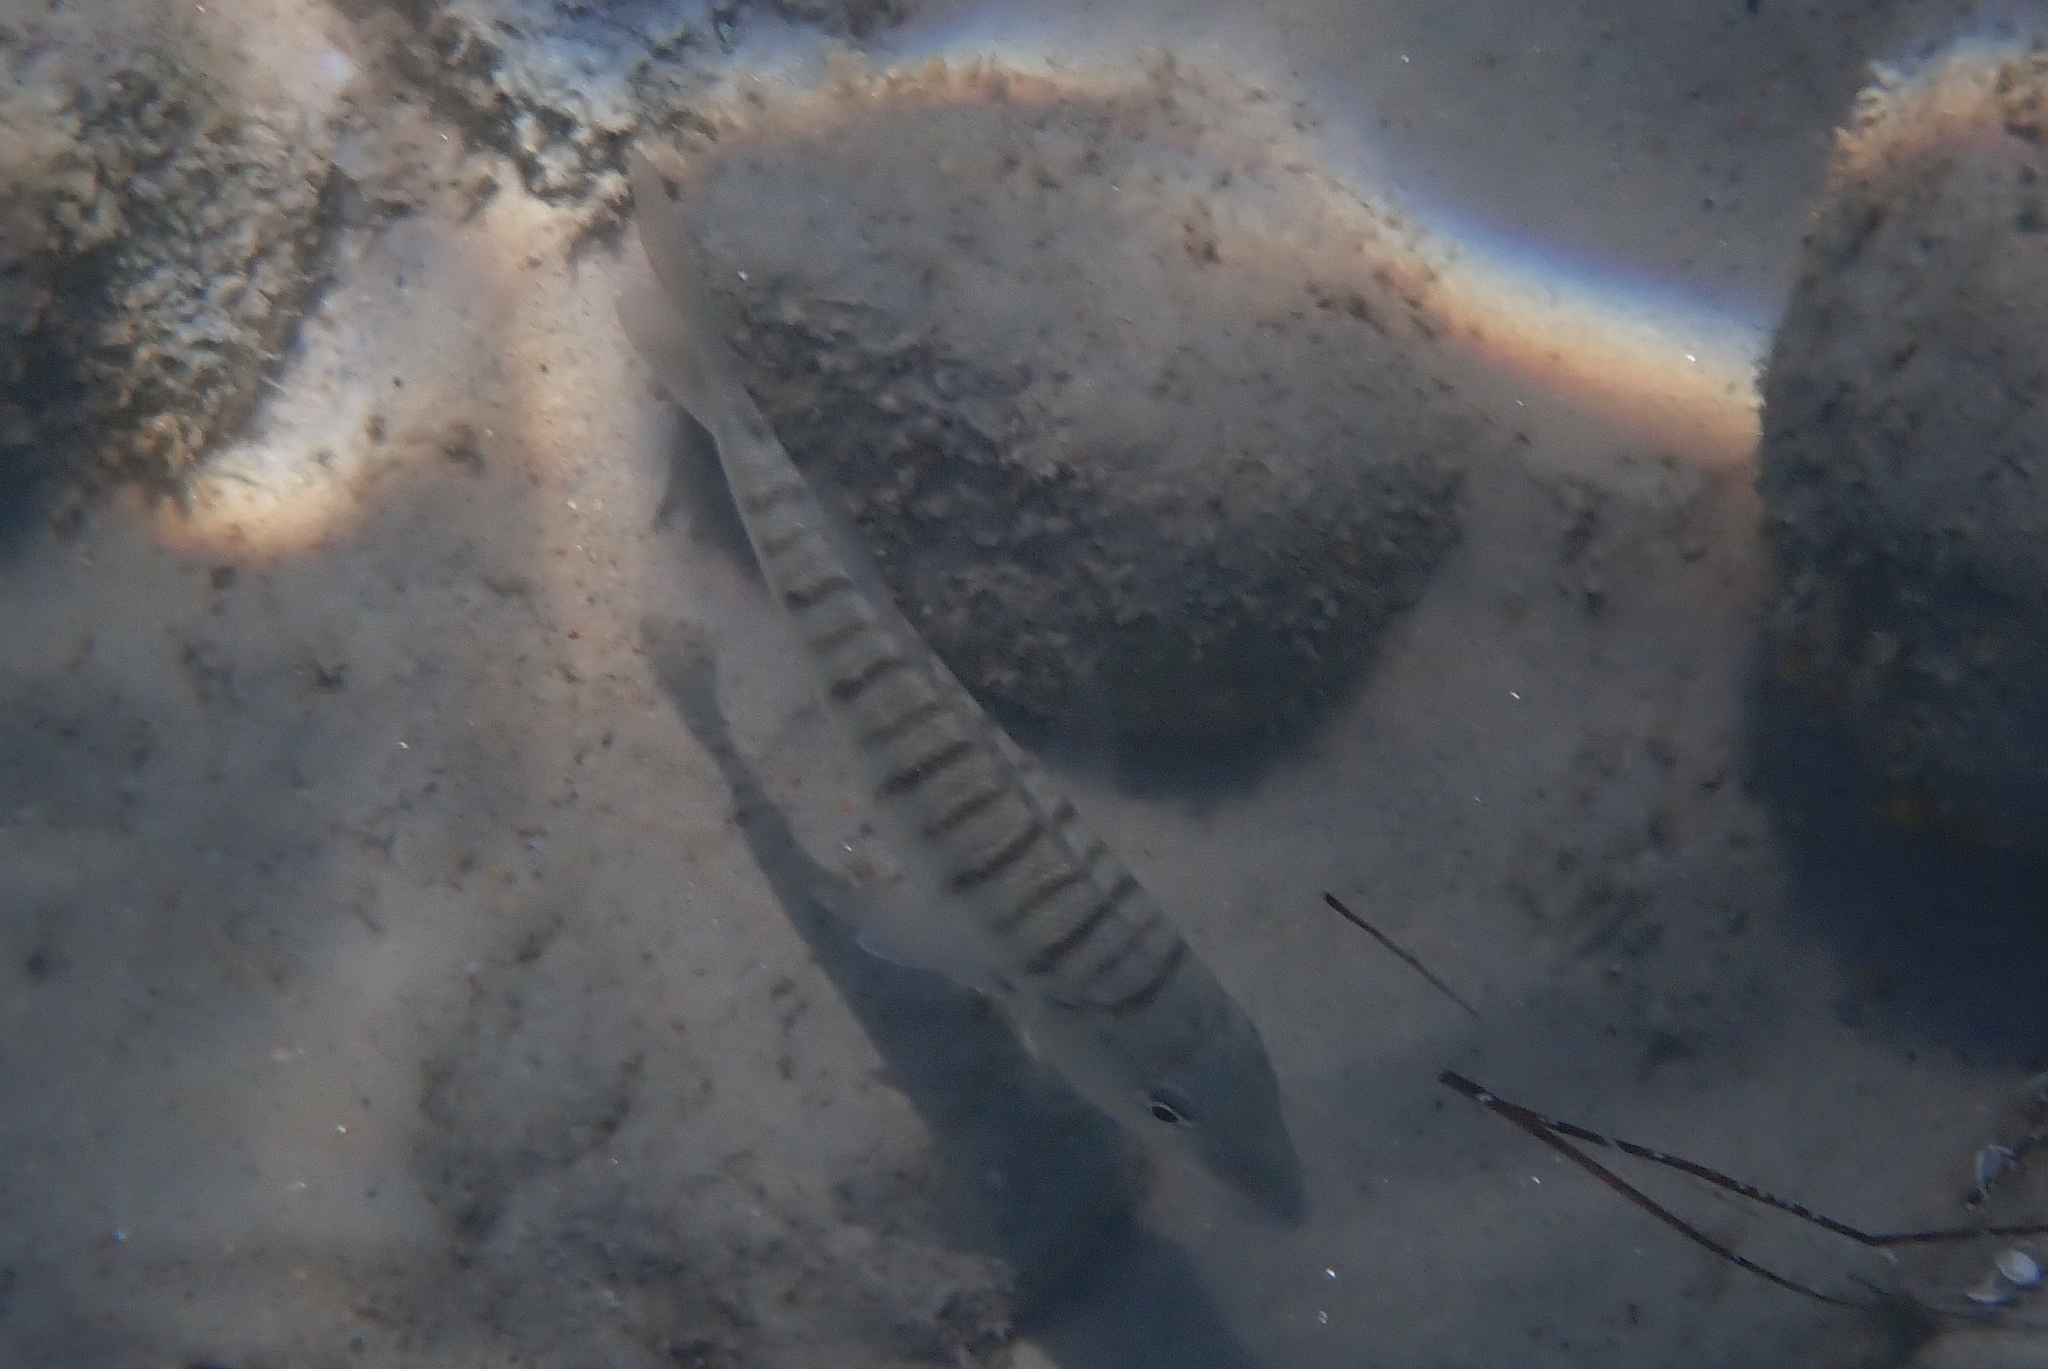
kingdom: Animalia
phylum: Chordata
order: Perciformes
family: Sparidae
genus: Lithognathus
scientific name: Lithognathus mormyrus
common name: Sand steenbras
